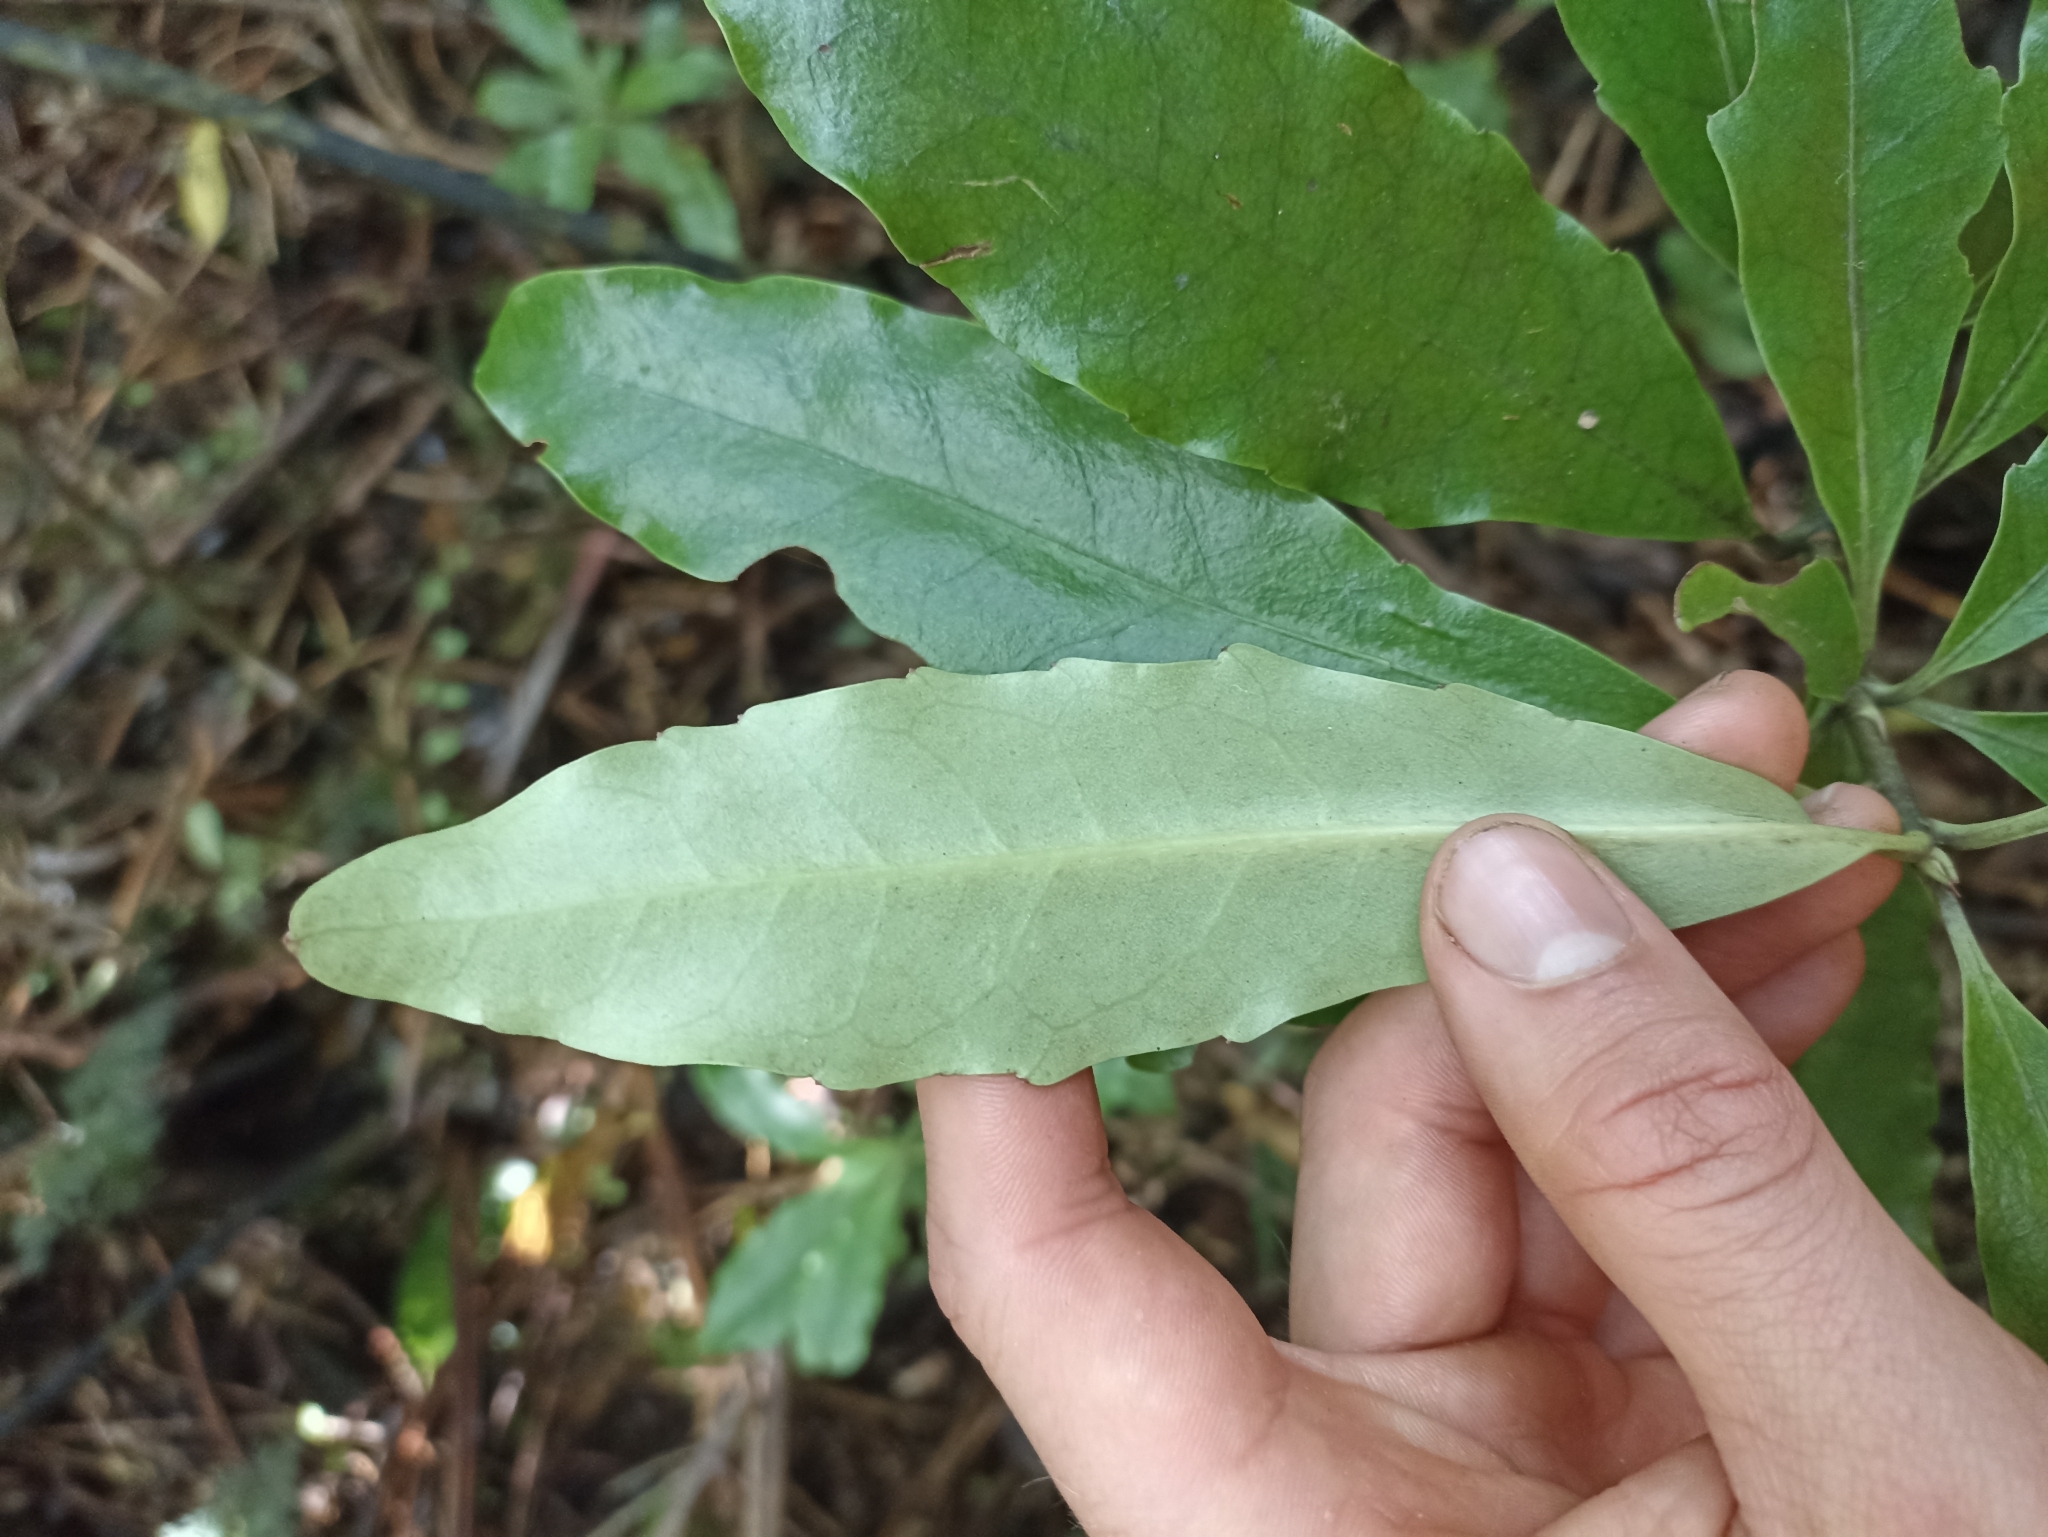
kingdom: Plantae
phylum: Tracheophyta
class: Magnoliopsida
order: Asterales
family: Alseuosmiaceae
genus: Alseuosmia
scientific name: Alseuosmia macrophylla
